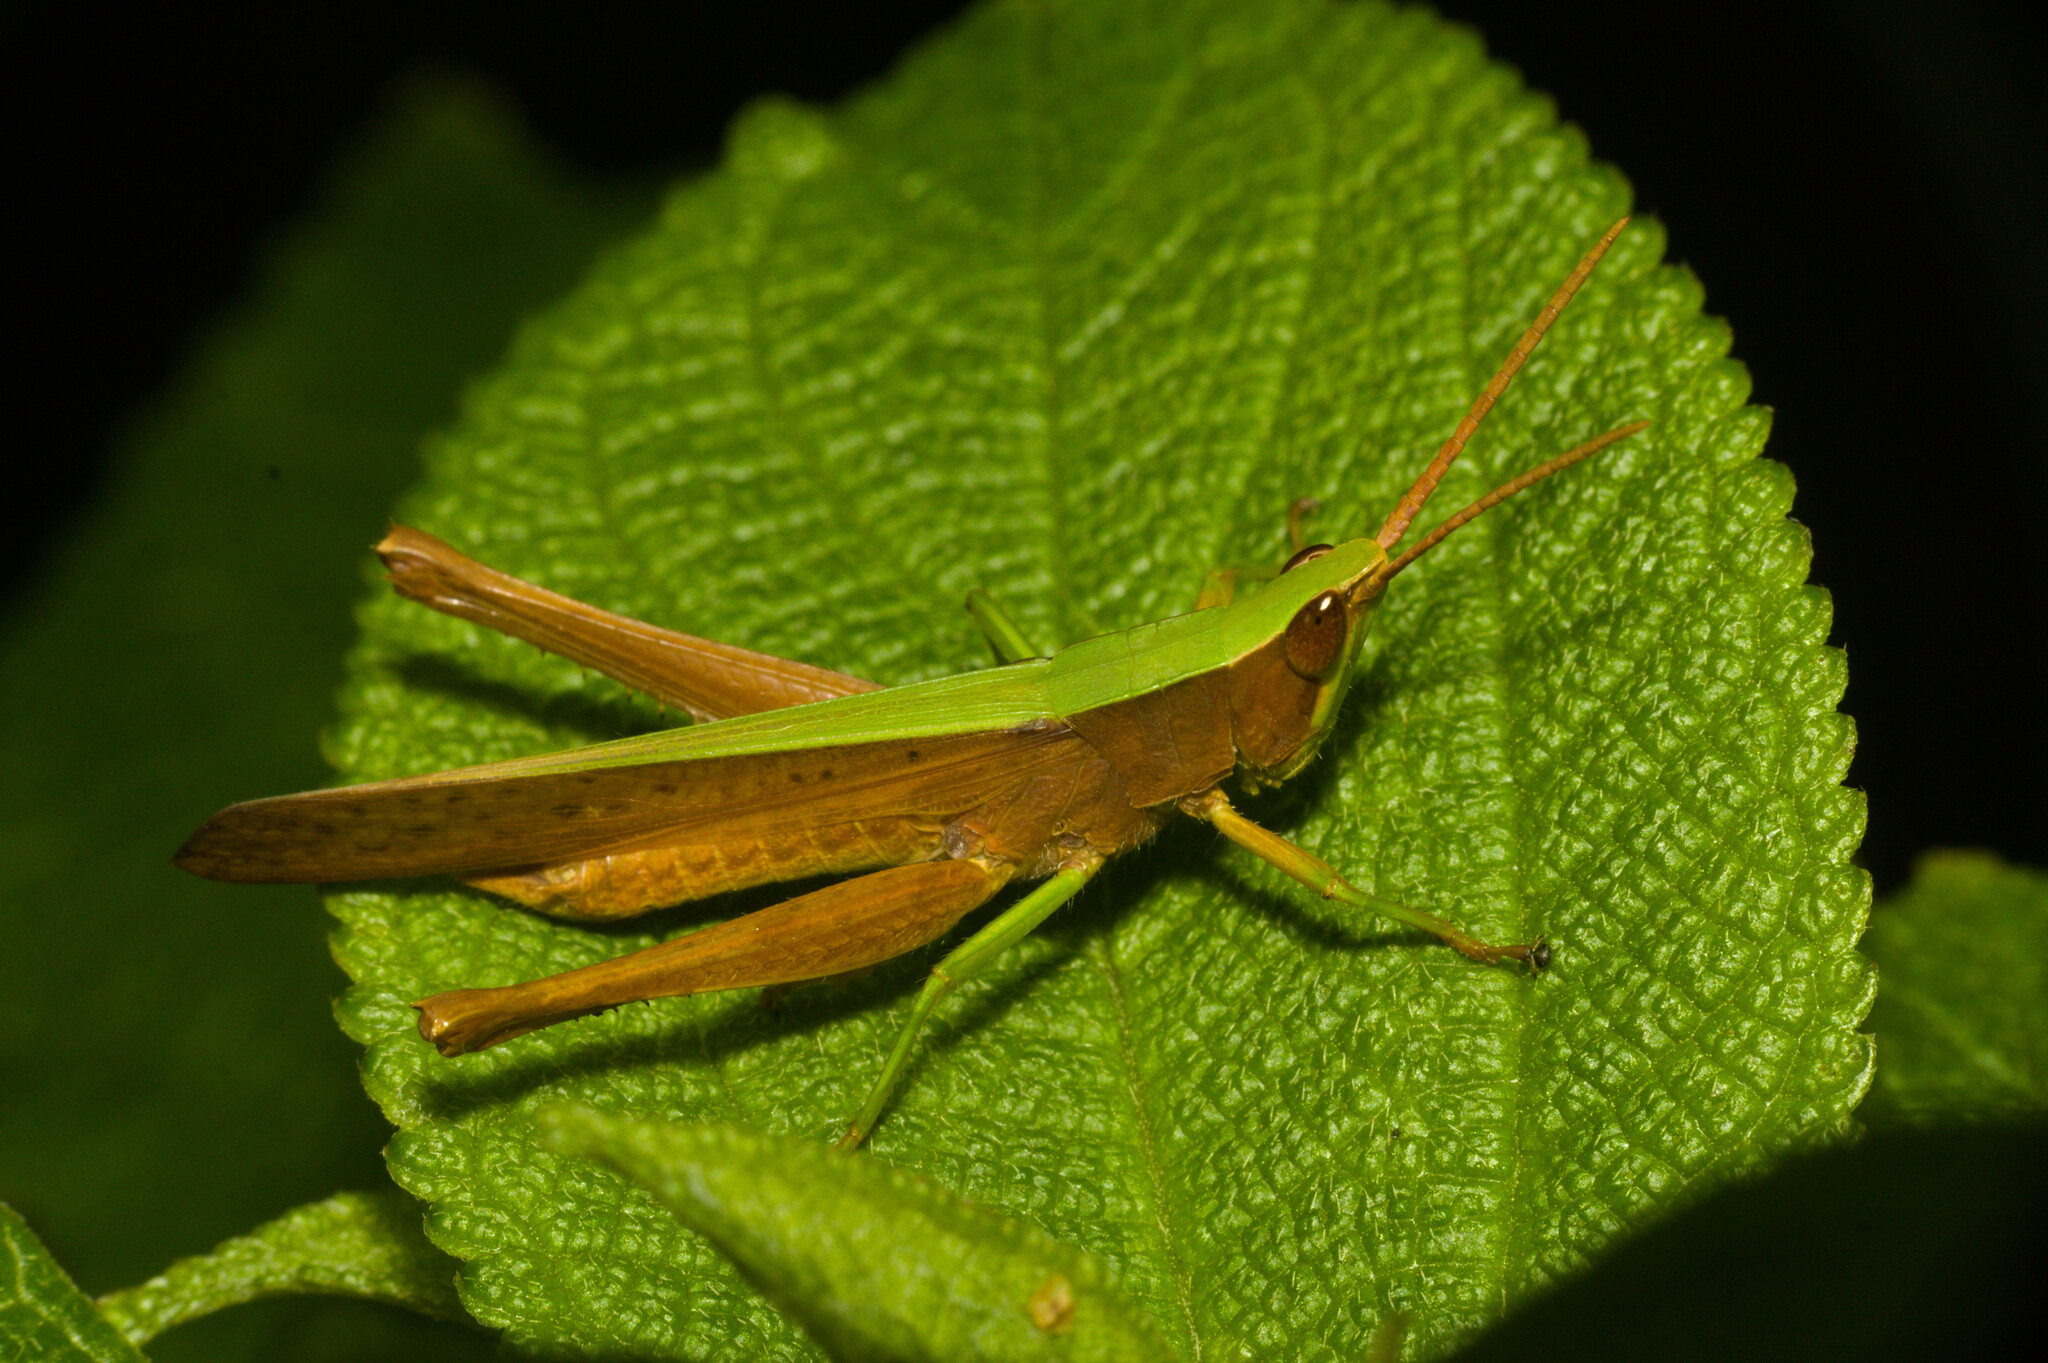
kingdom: Animalia
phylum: Arthropoda
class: Insecta
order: Orthoptera
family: Acrididae
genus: Metaleptea
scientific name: Metaleptea adspersa
